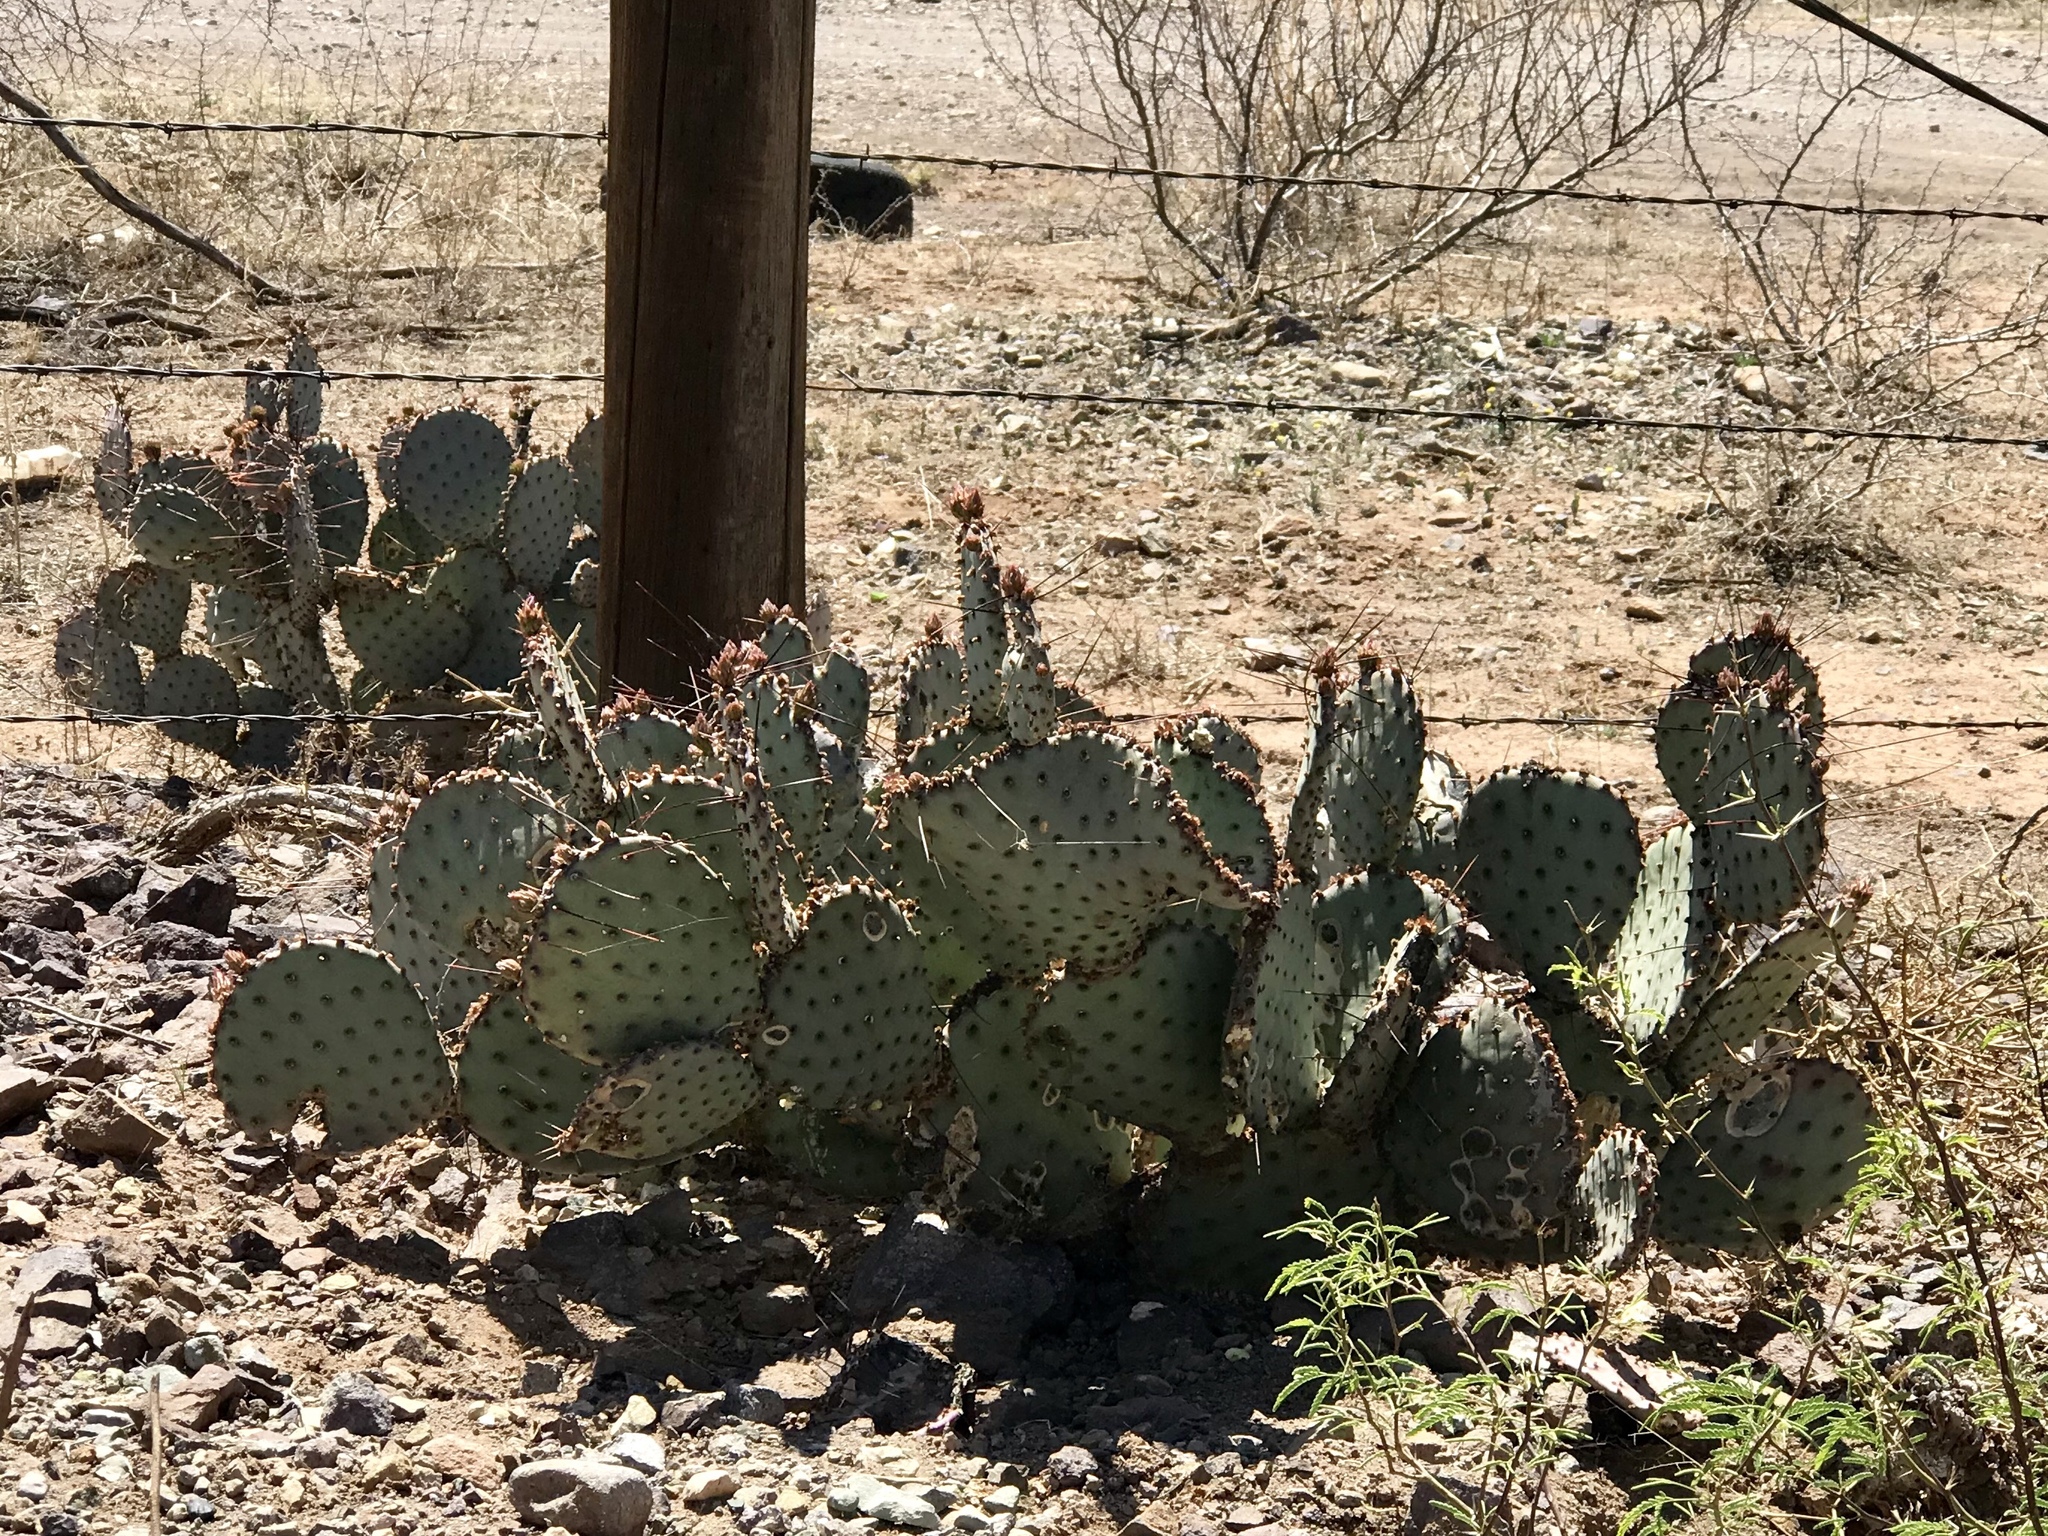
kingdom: Plantae
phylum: Tracheophyta
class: Magnoliopsida
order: Caryophyllales
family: Cactaceae
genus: Opuntia
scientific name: Opuntia macrocentra
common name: Purple prickly-pear
